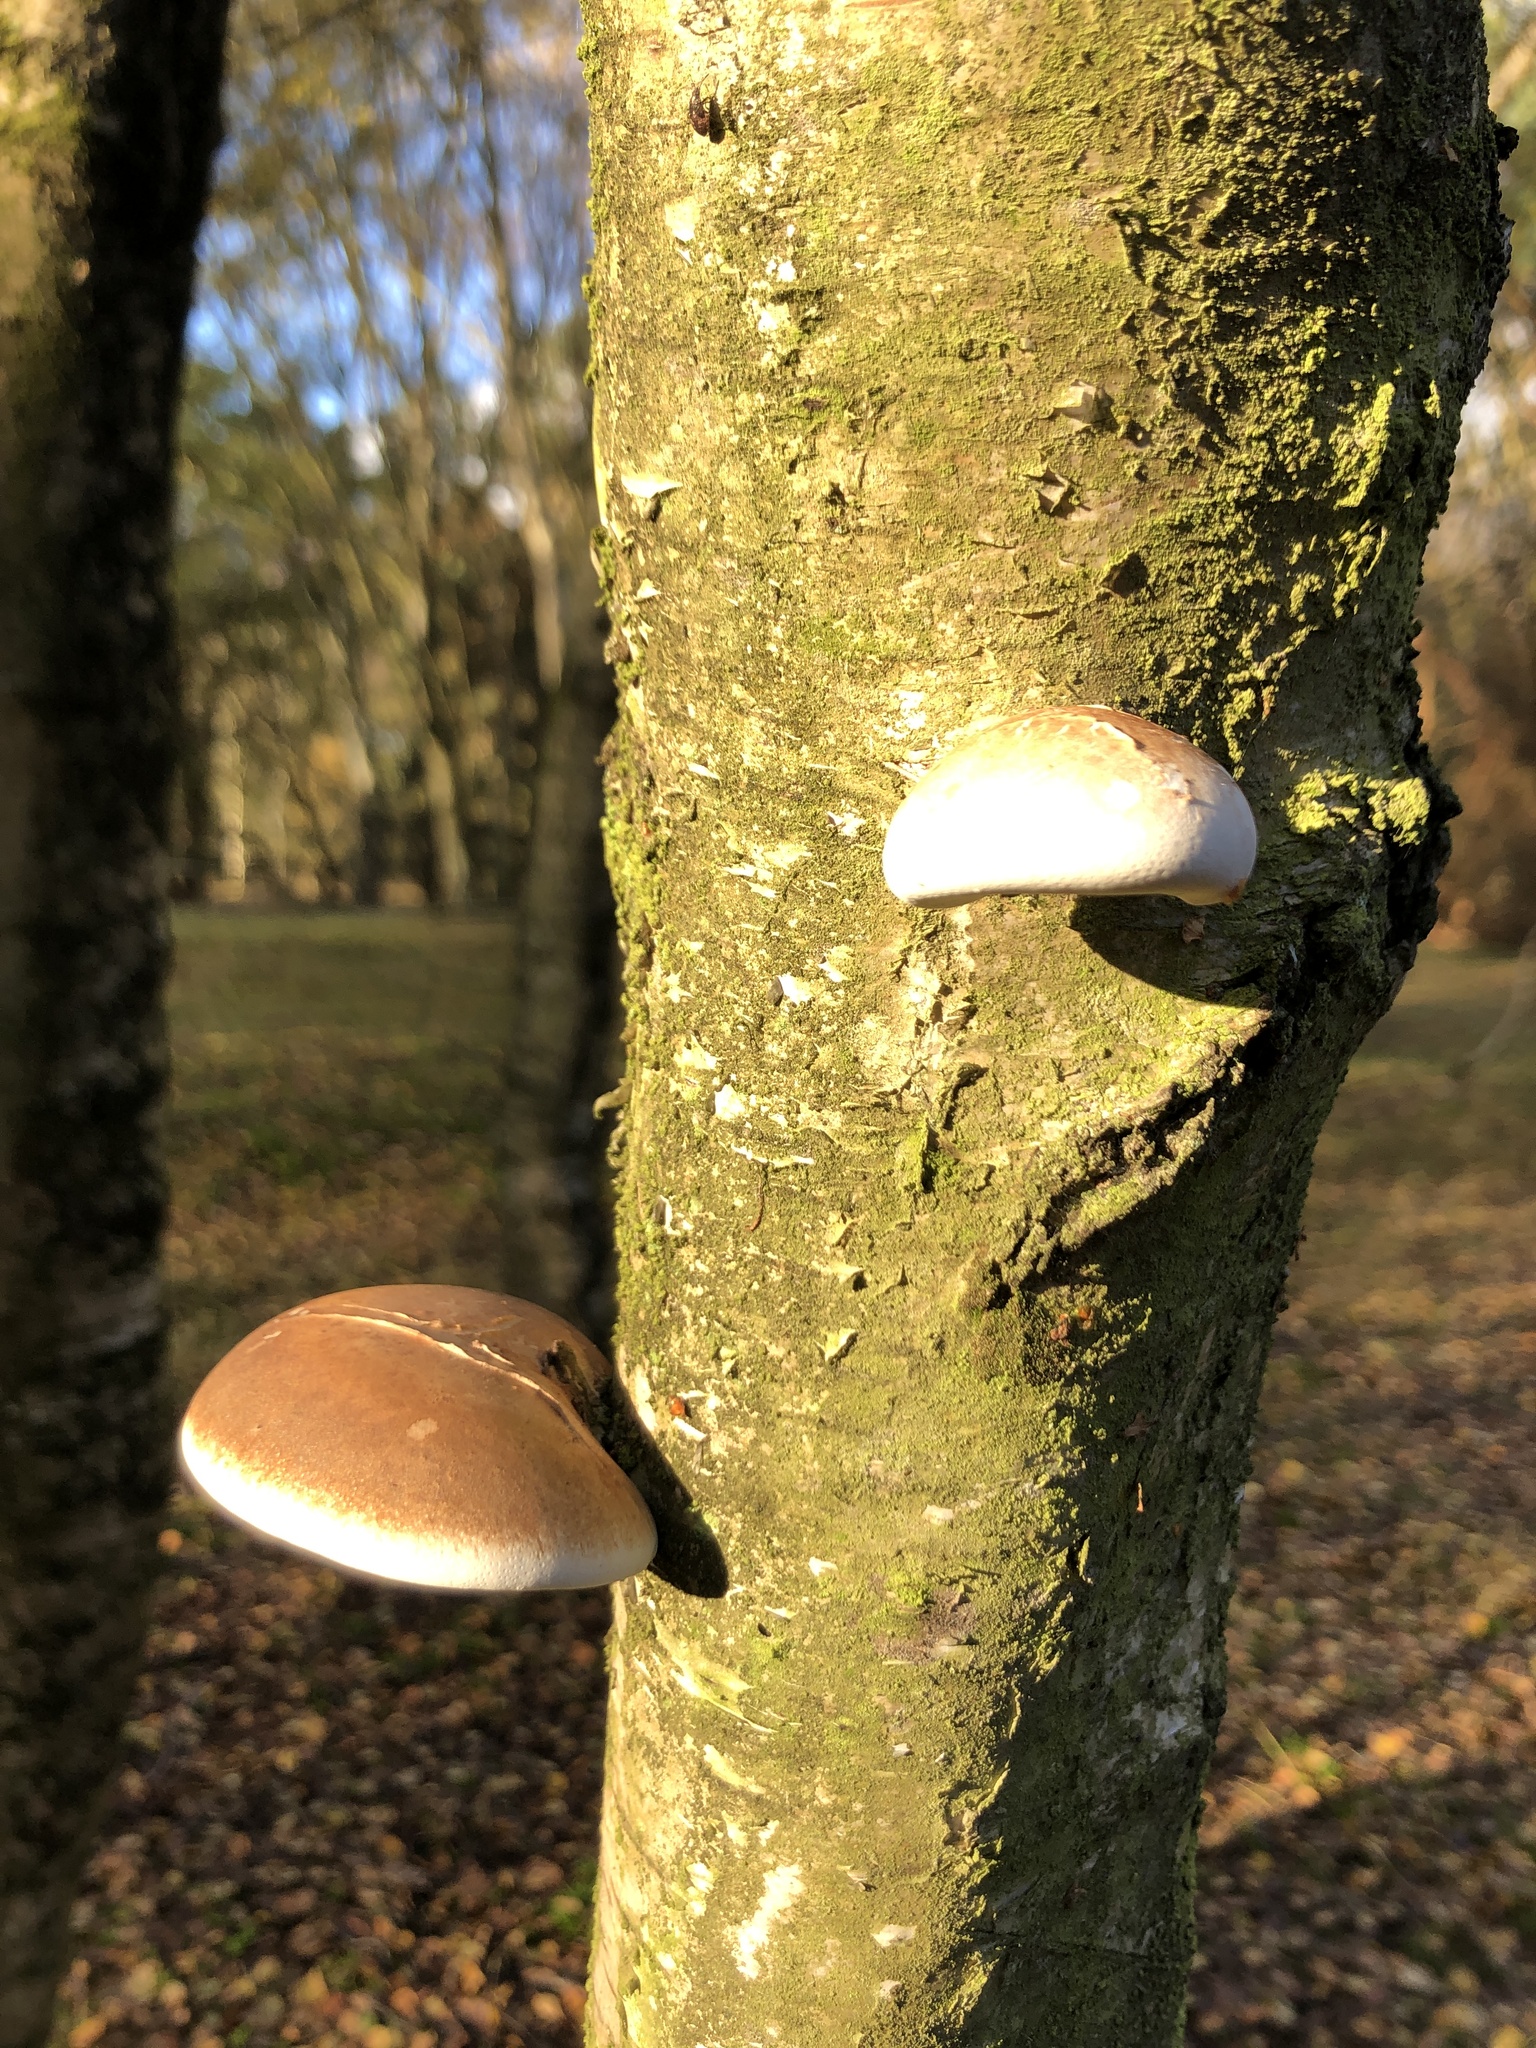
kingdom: Fungi
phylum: Basidiomycota
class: Agaricomycetes
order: Polyporales
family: Fomitopsidaceae
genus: Fomitopsis
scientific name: Fomitopsis betulina
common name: Birch polypore
